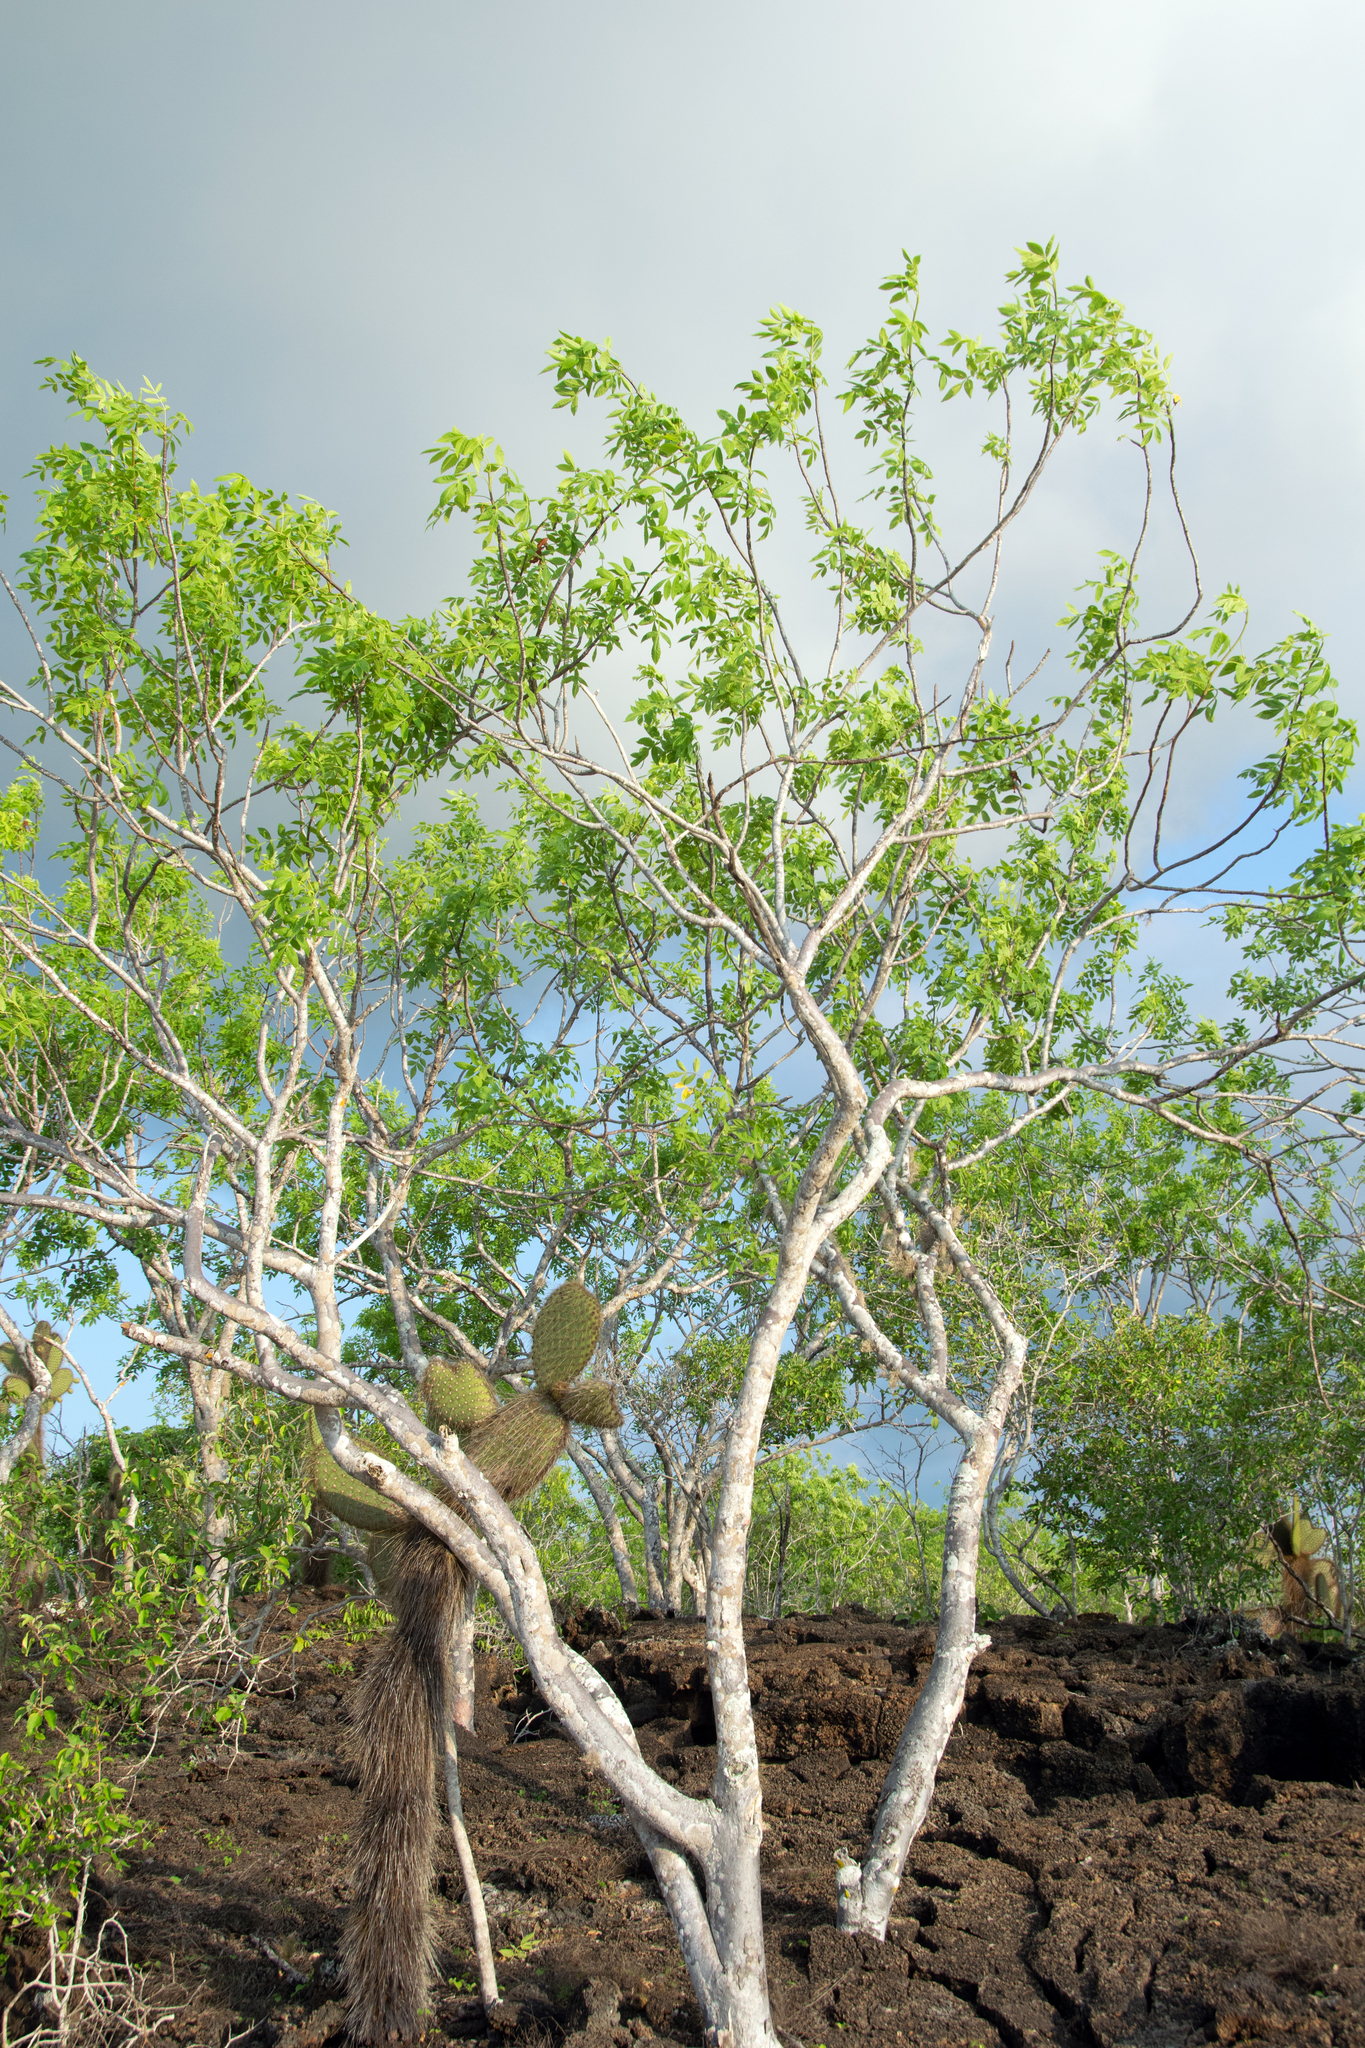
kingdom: Plantae
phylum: Tracheophyta
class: Magnoliopsida
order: Sapindales
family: Burseraceae
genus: Bursera
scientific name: Bursera graveolens
